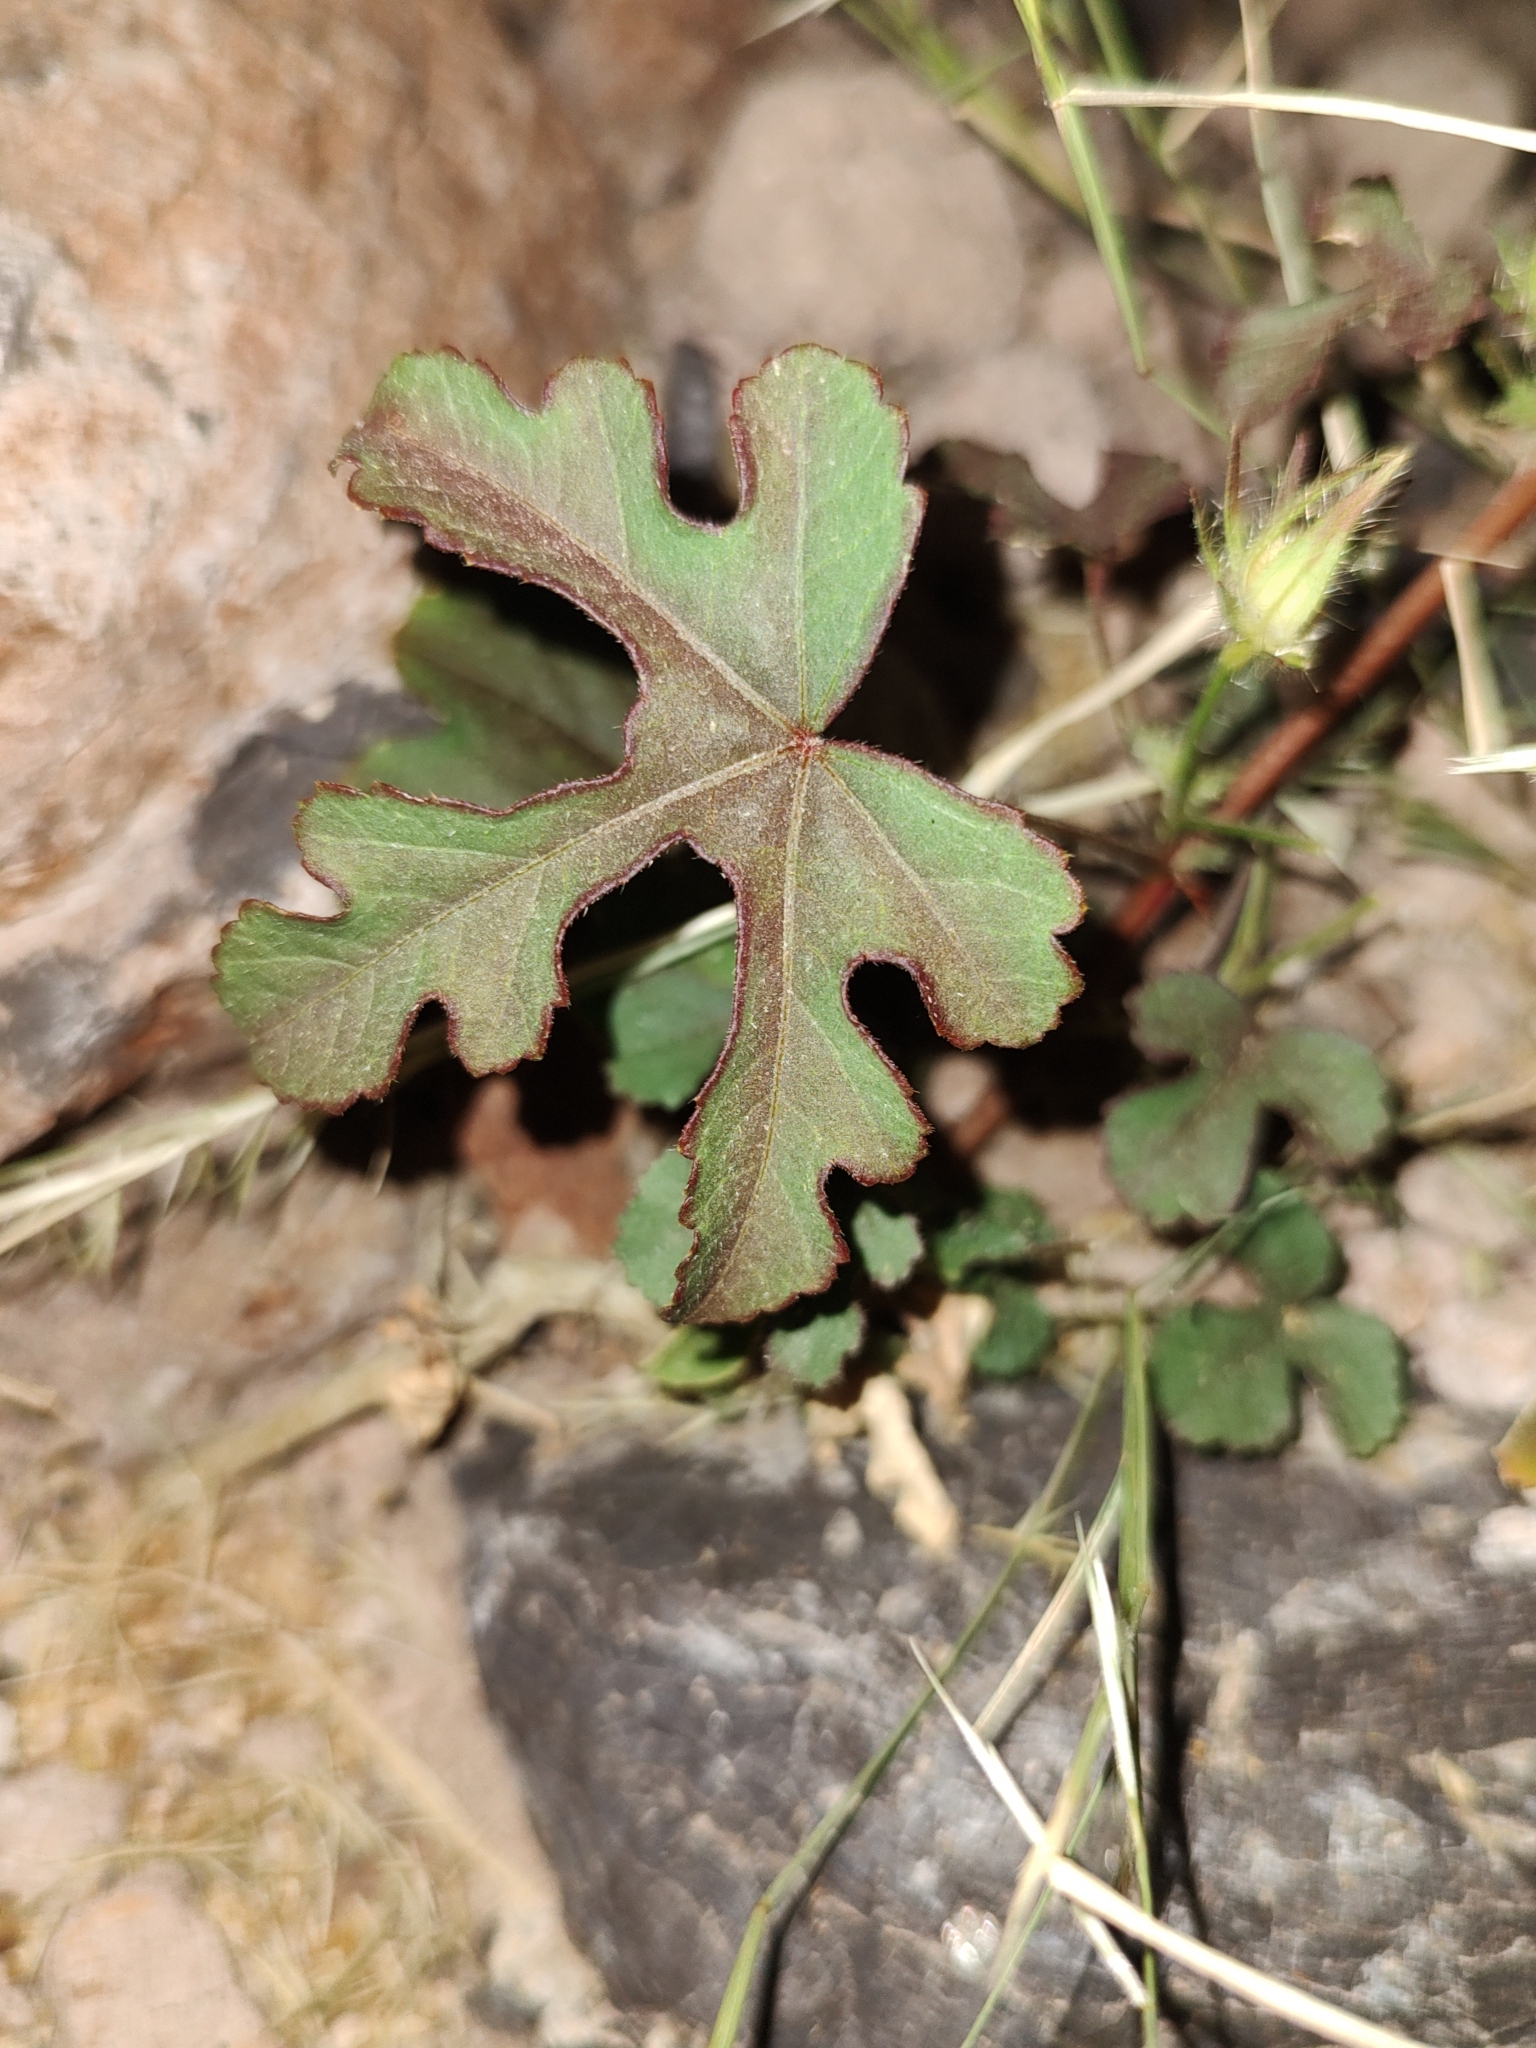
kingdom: Plantae
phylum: Tracheophyta
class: Magnoliopsida
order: Malvales
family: Malvaceae
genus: Hibiscus
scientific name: Hibiscus biseptus
